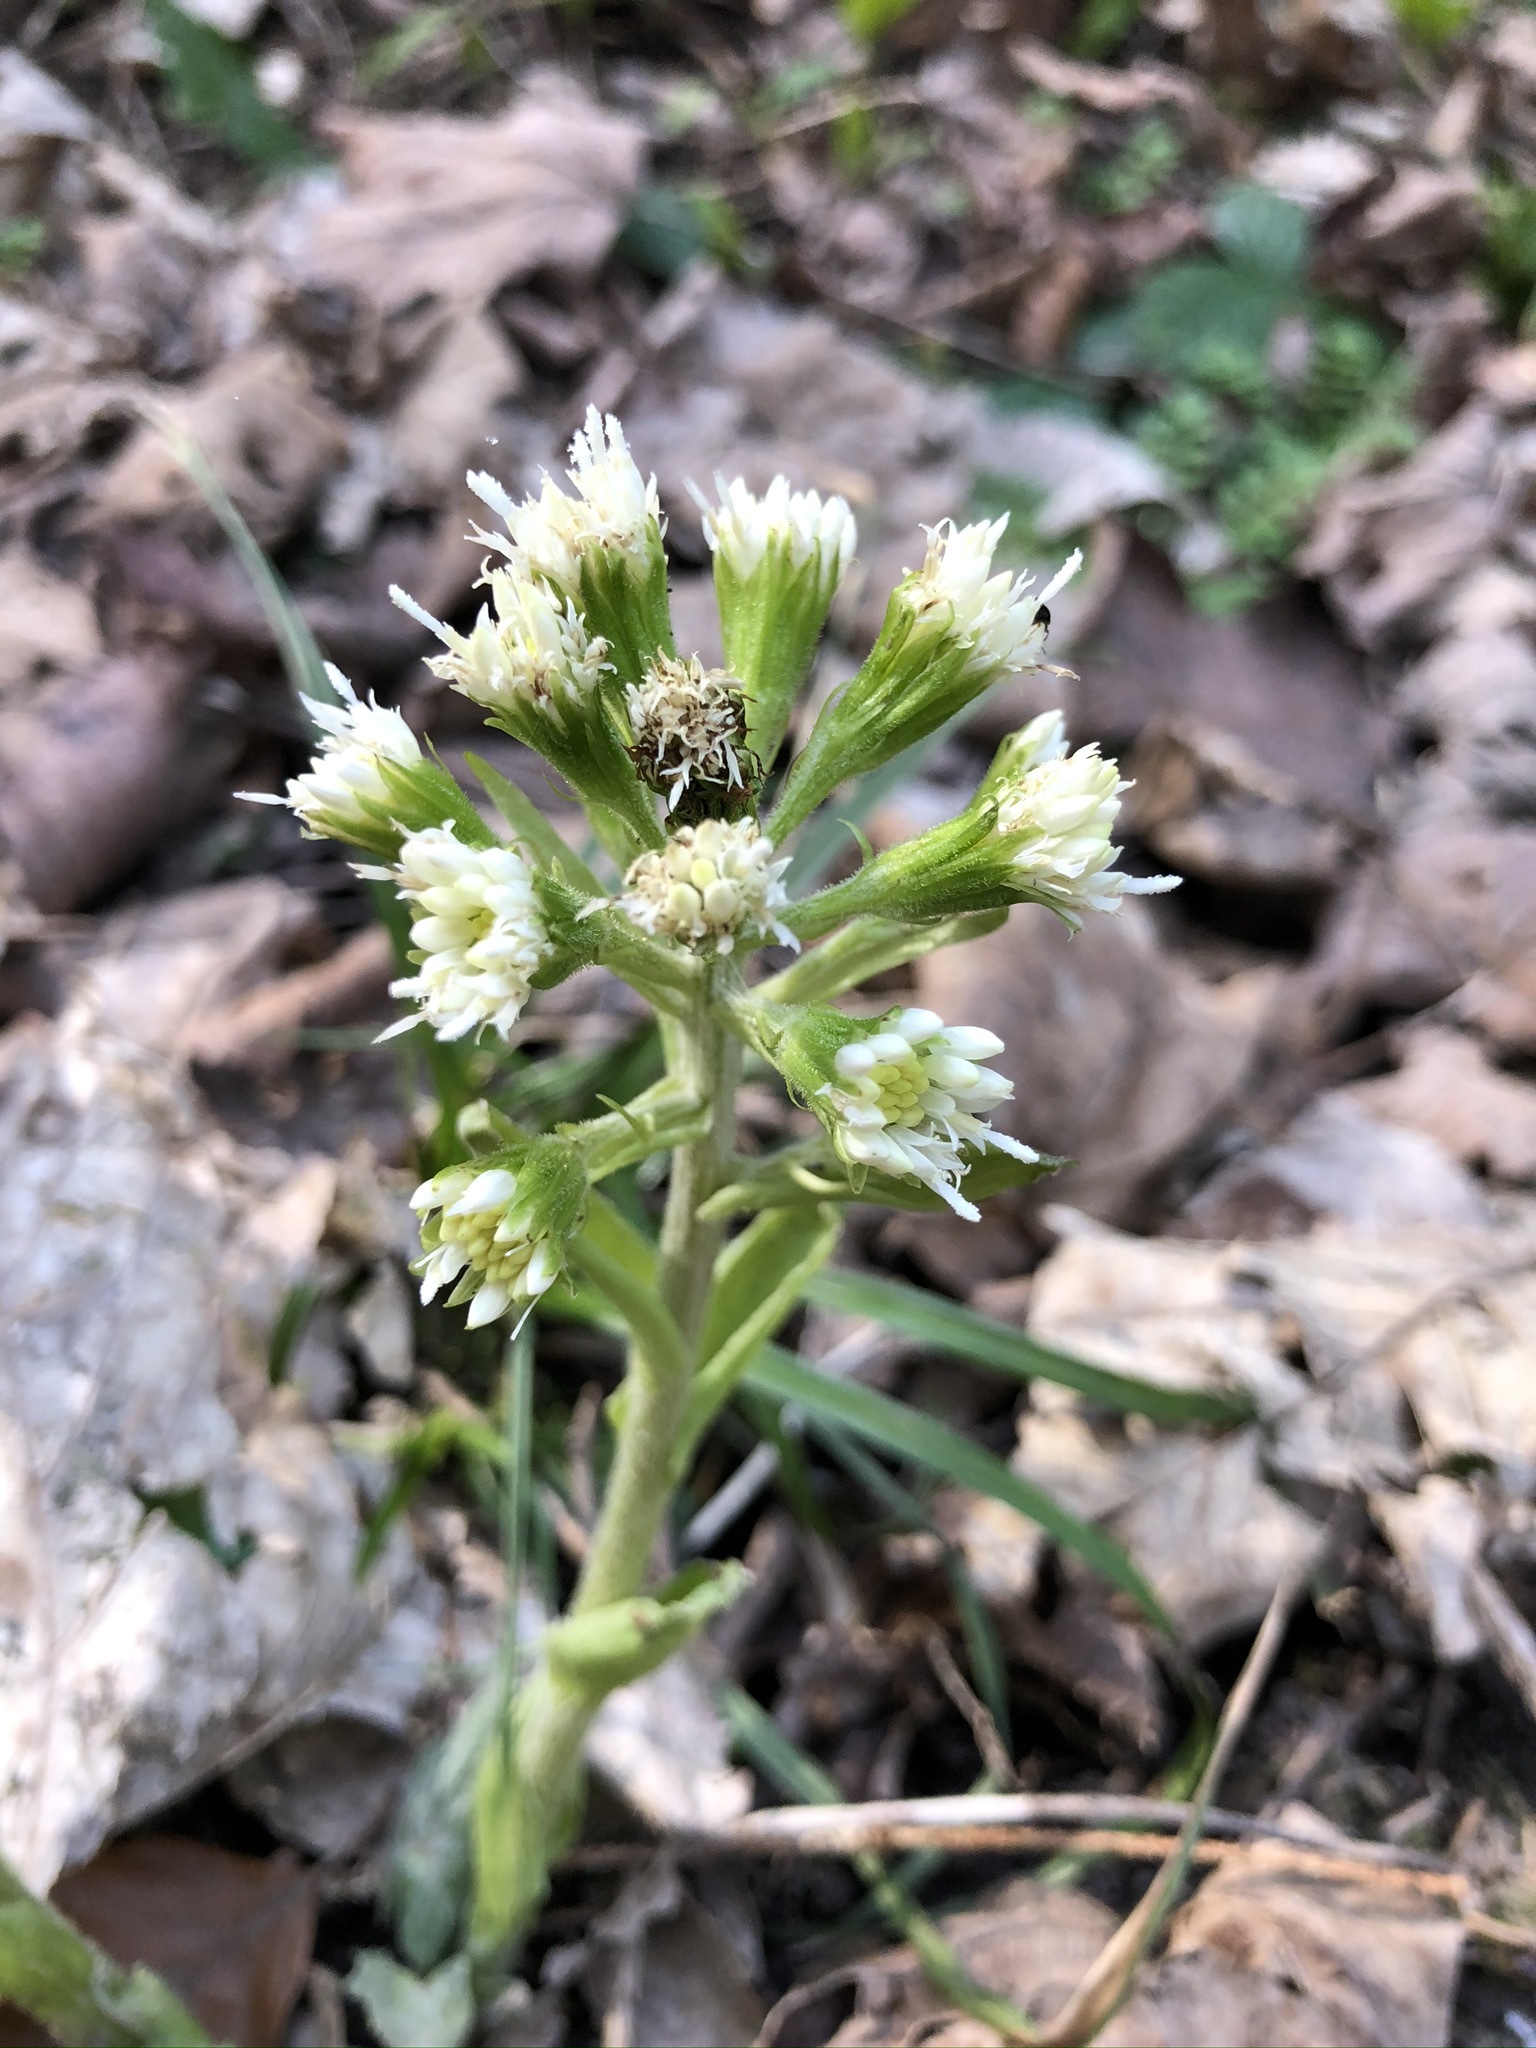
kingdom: Plantae
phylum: Tracheophyta
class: Magnoliopsida
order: Asterales
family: Asteraceae
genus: Petasites
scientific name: Petasites albus
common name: White butterbur
